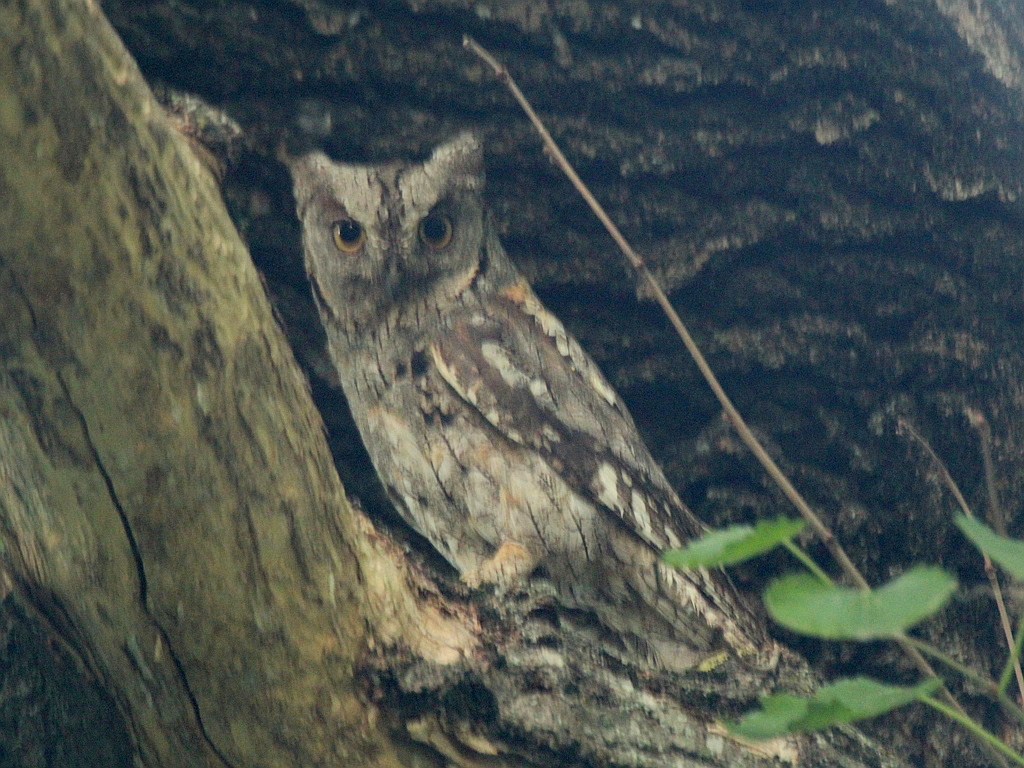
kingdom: Animalia
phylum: Chordata
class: Aves
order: Strigiformes
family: Strigidae
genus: Otus
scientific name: Otus scops
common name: Eurasian scops owl
